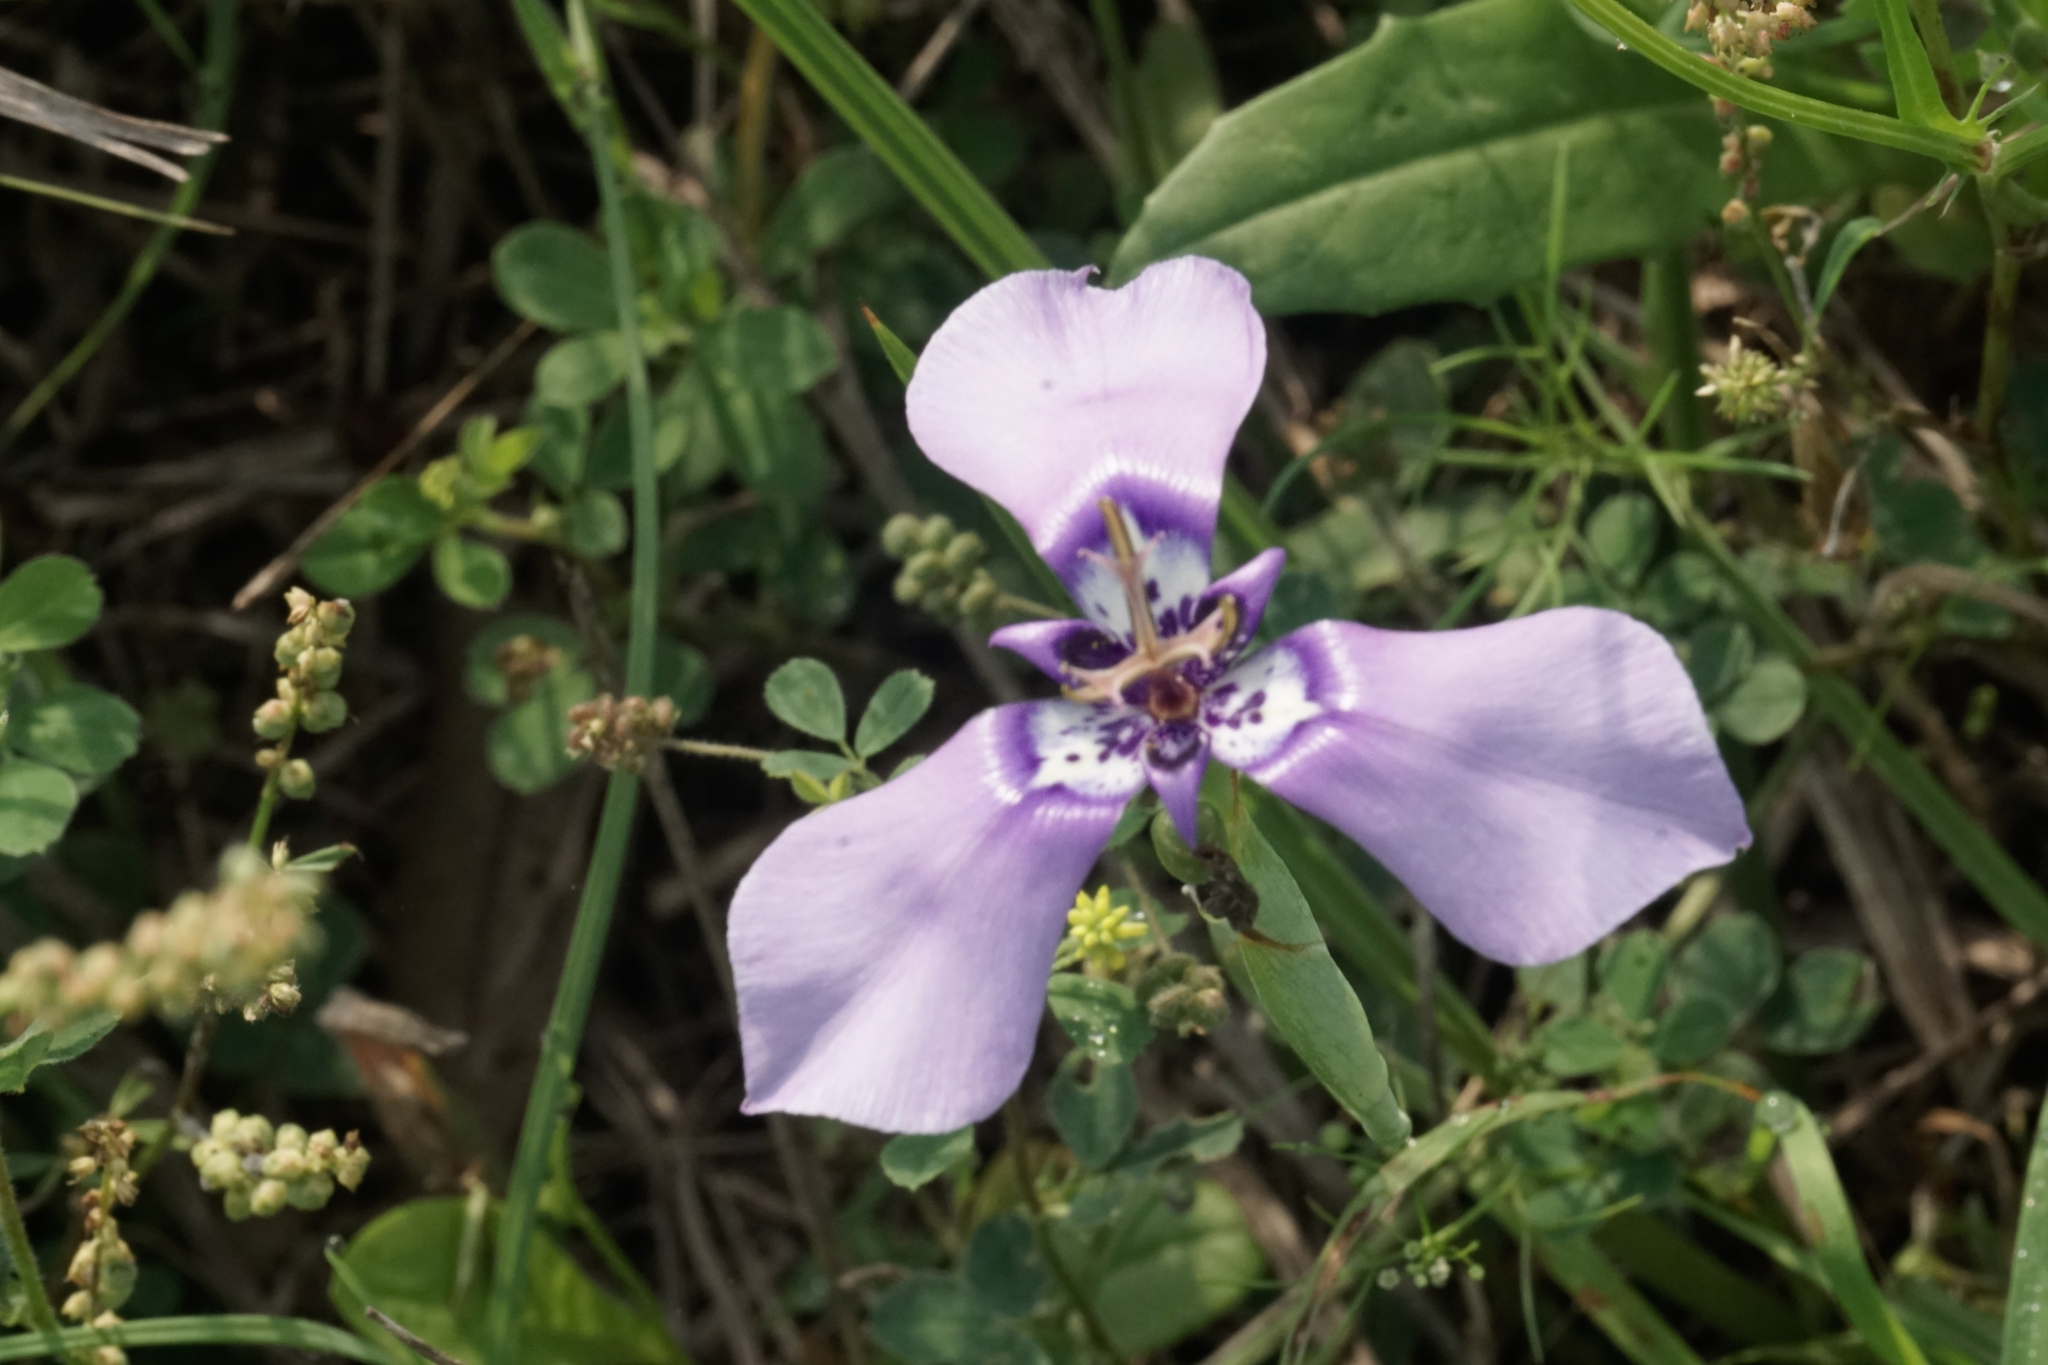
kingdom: Plantae
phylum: Tracheophyta
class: Liliopsida
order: Asparagales
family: Iridaceae
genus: Herbertia
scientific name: Herbertia lahue
